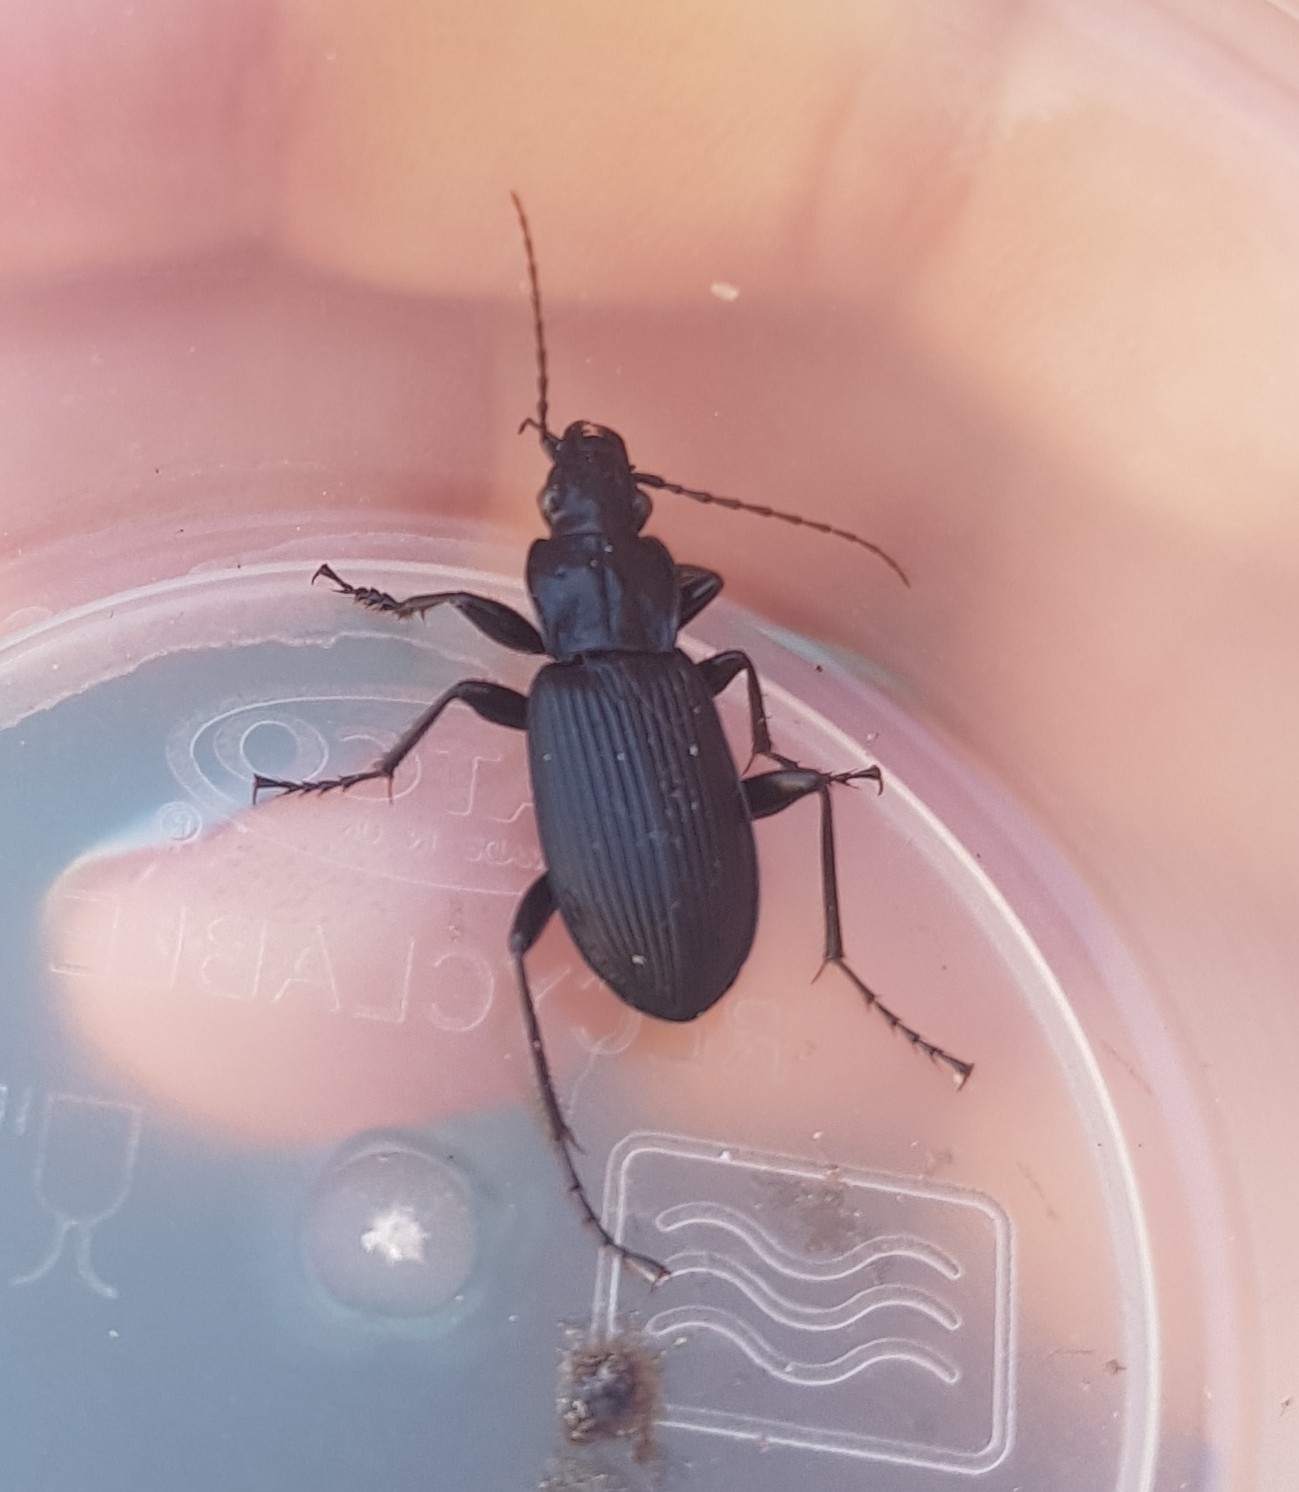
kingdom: Animalia
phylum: Arthropoda
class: Insecta
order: Coleoptera
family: Carabidae
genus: Pterostichus
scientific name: Pterostichus niger
